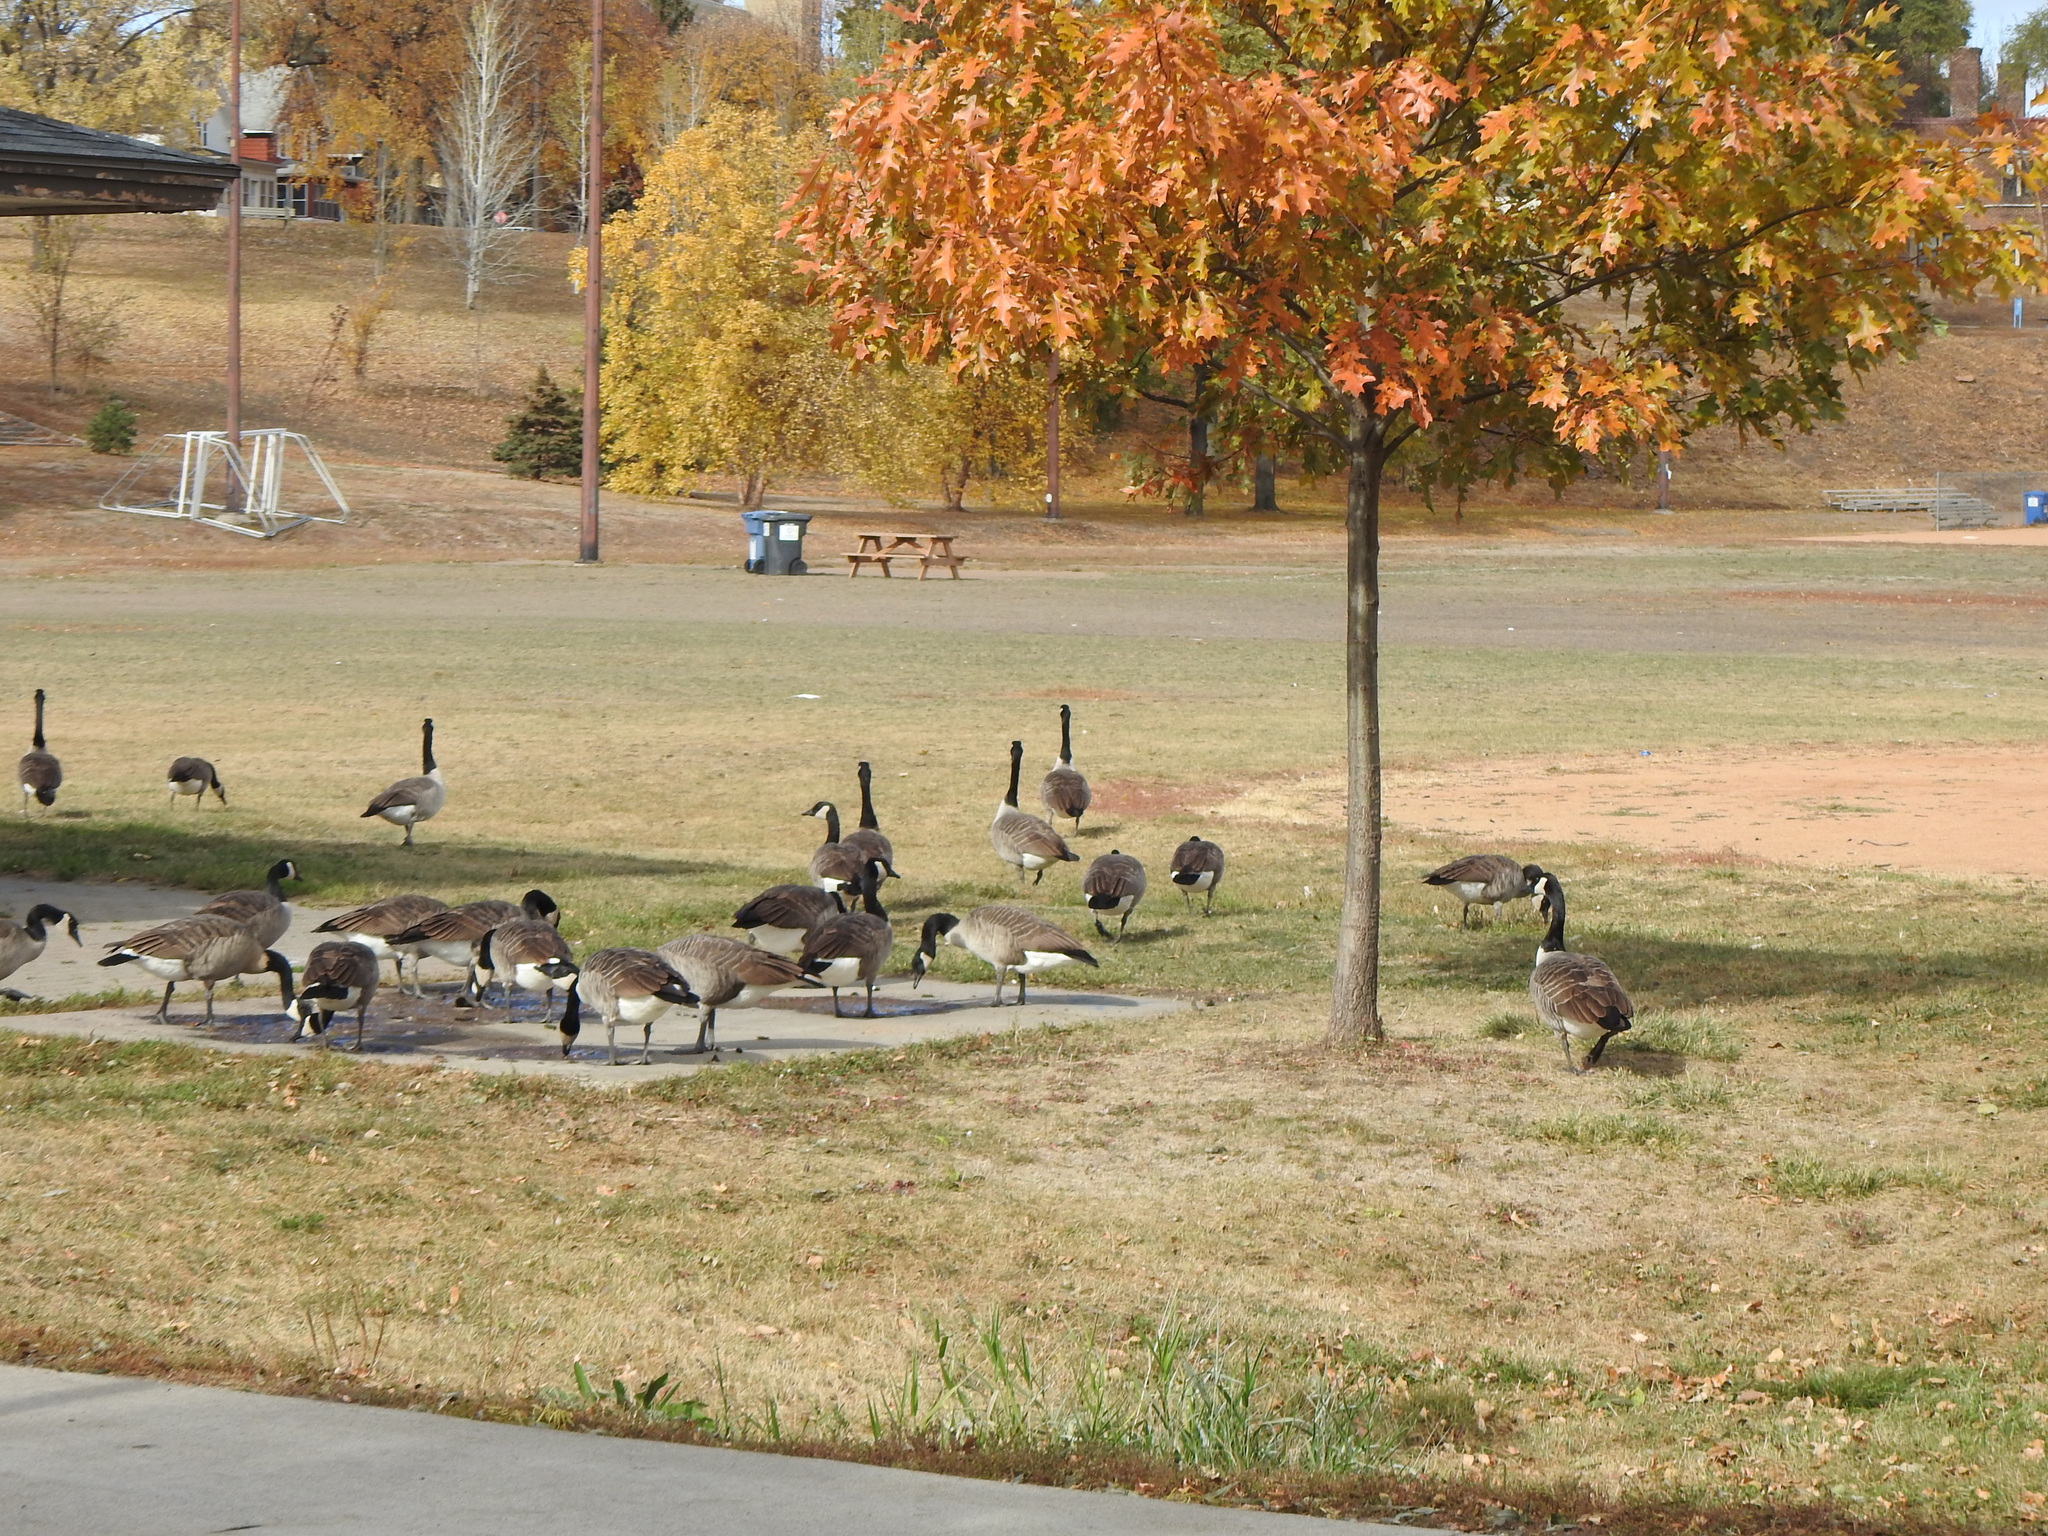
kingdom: Animalia
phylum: Chordata
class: Aves
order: Anseriformes
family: Anatidae
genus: Branta
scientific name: Branta canadensis
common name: Canada goose
